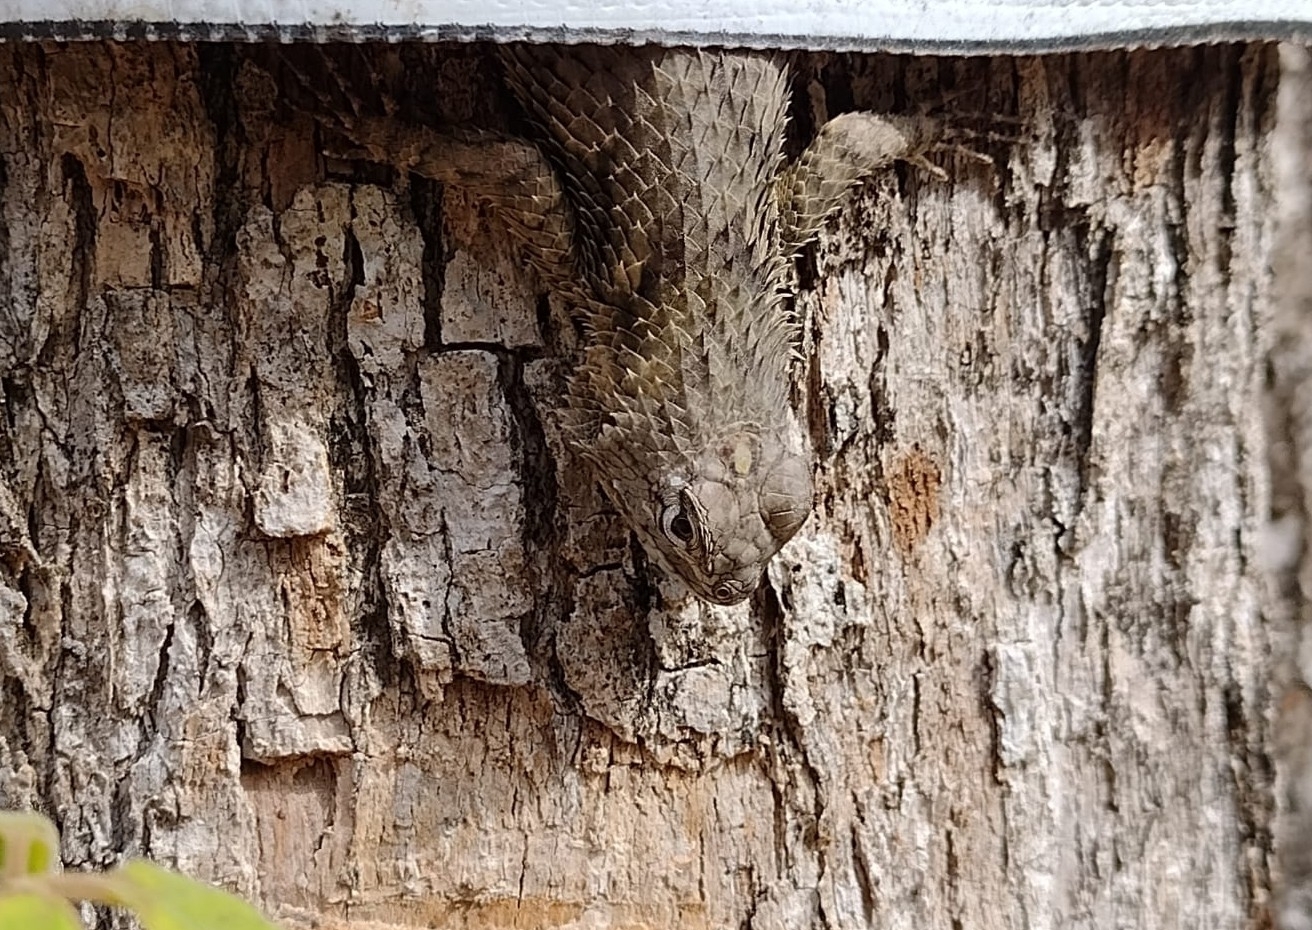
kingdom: Animalia
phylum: Chordata
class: Squamata
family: Phrynosomatidae
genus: Sceloporus
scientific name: Sceloporus lundelli
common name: Lundell's spiny lizard
